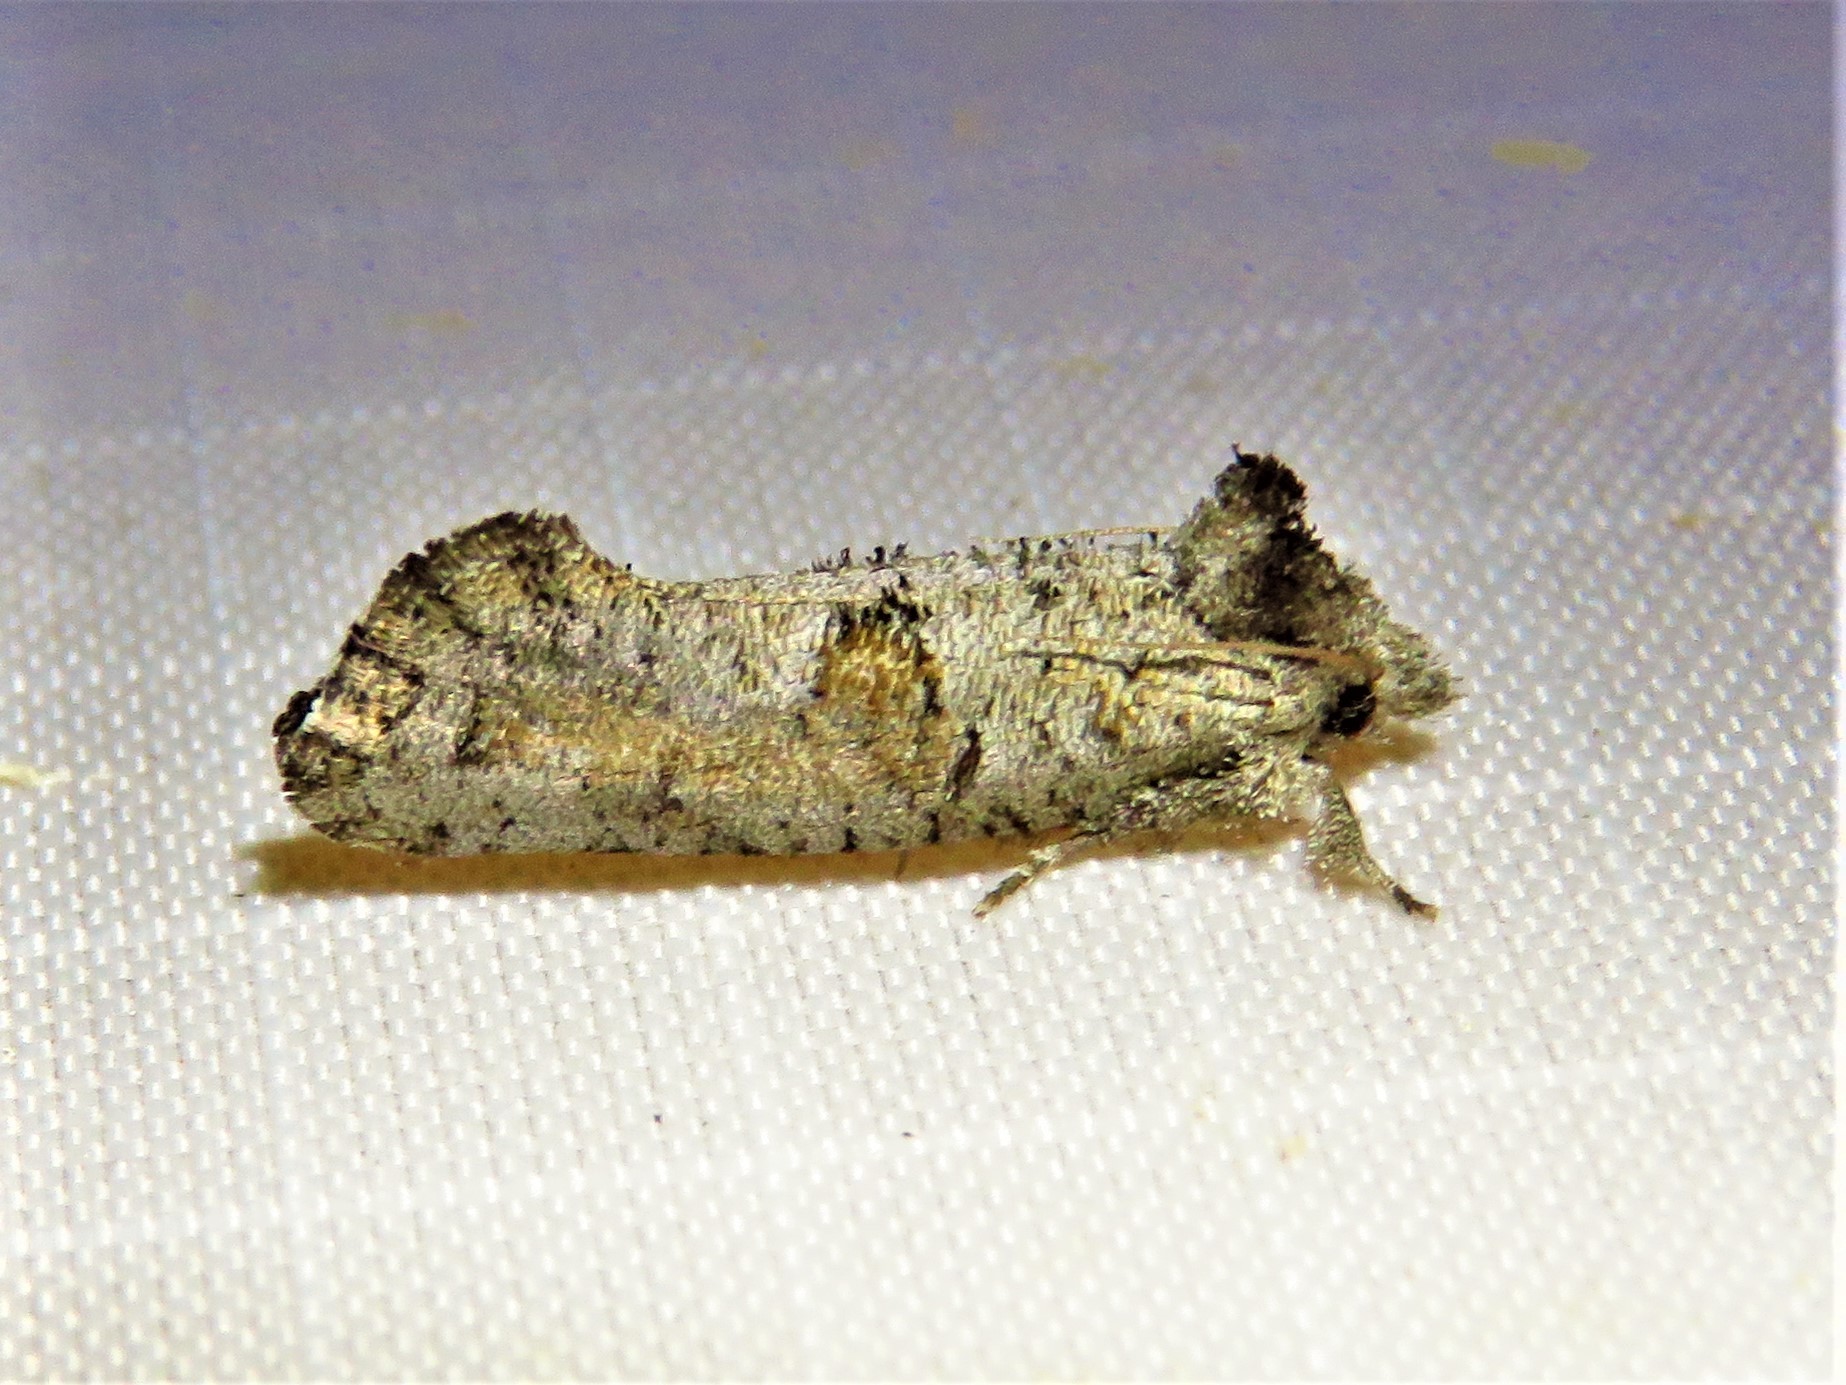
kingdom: Animalia
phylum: Arthropoda
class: Insecta
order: Lepidoptera
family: Tineidae
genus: Acrolophus
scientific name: Acrolophus piger
